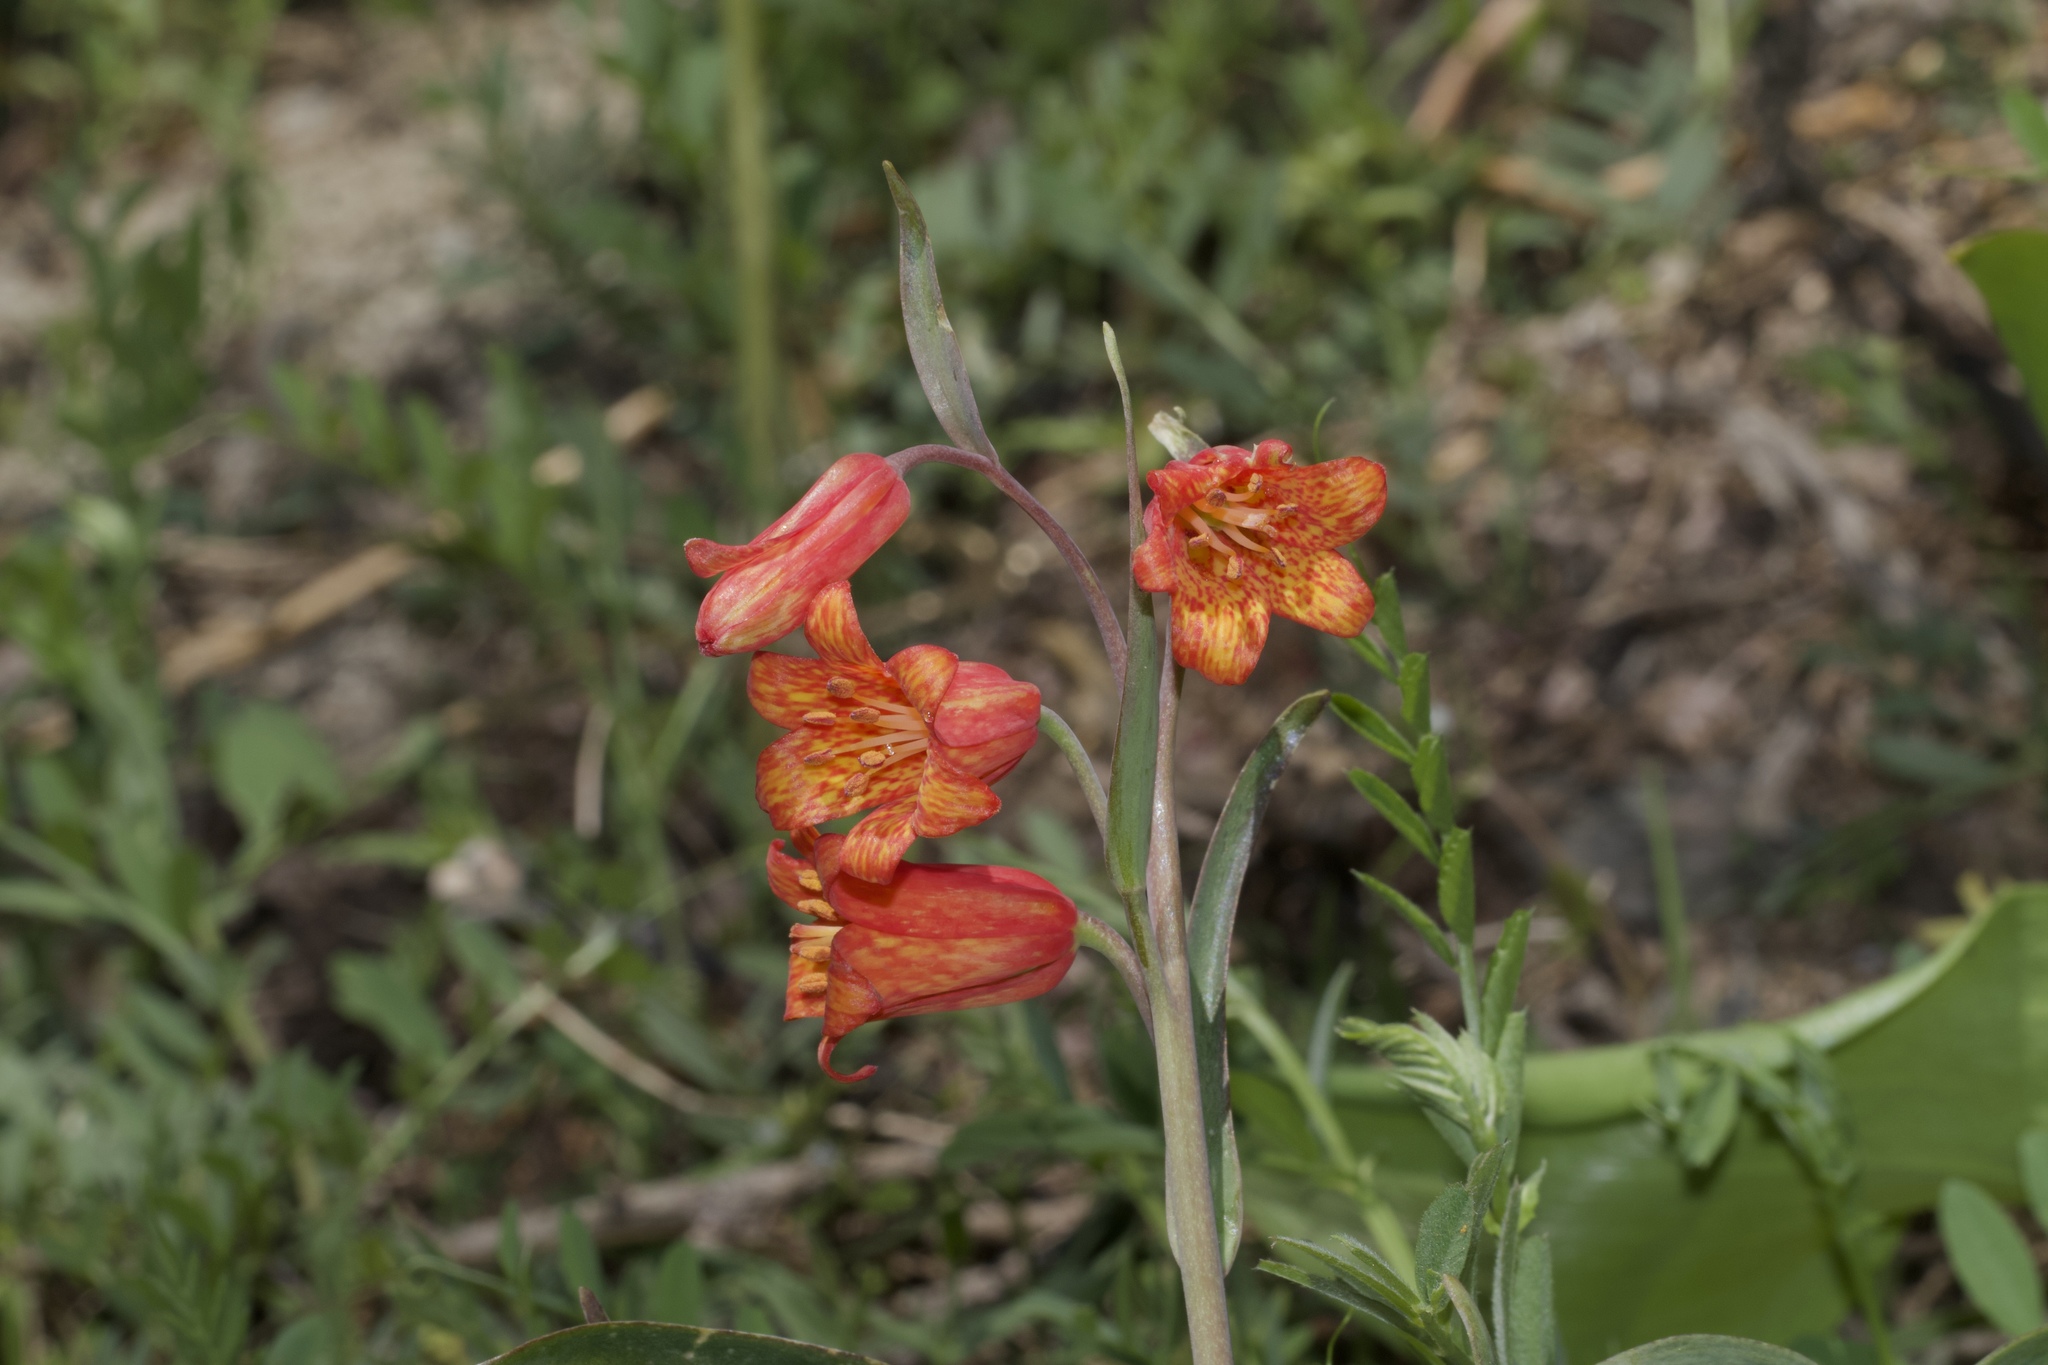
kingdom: Plantae
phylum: Tracheophyta
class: Liliopsida
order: Liliales
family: Liliaceae
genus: Fritillaria
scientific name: Fritillaria recurva
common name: Scarlet fritillary
